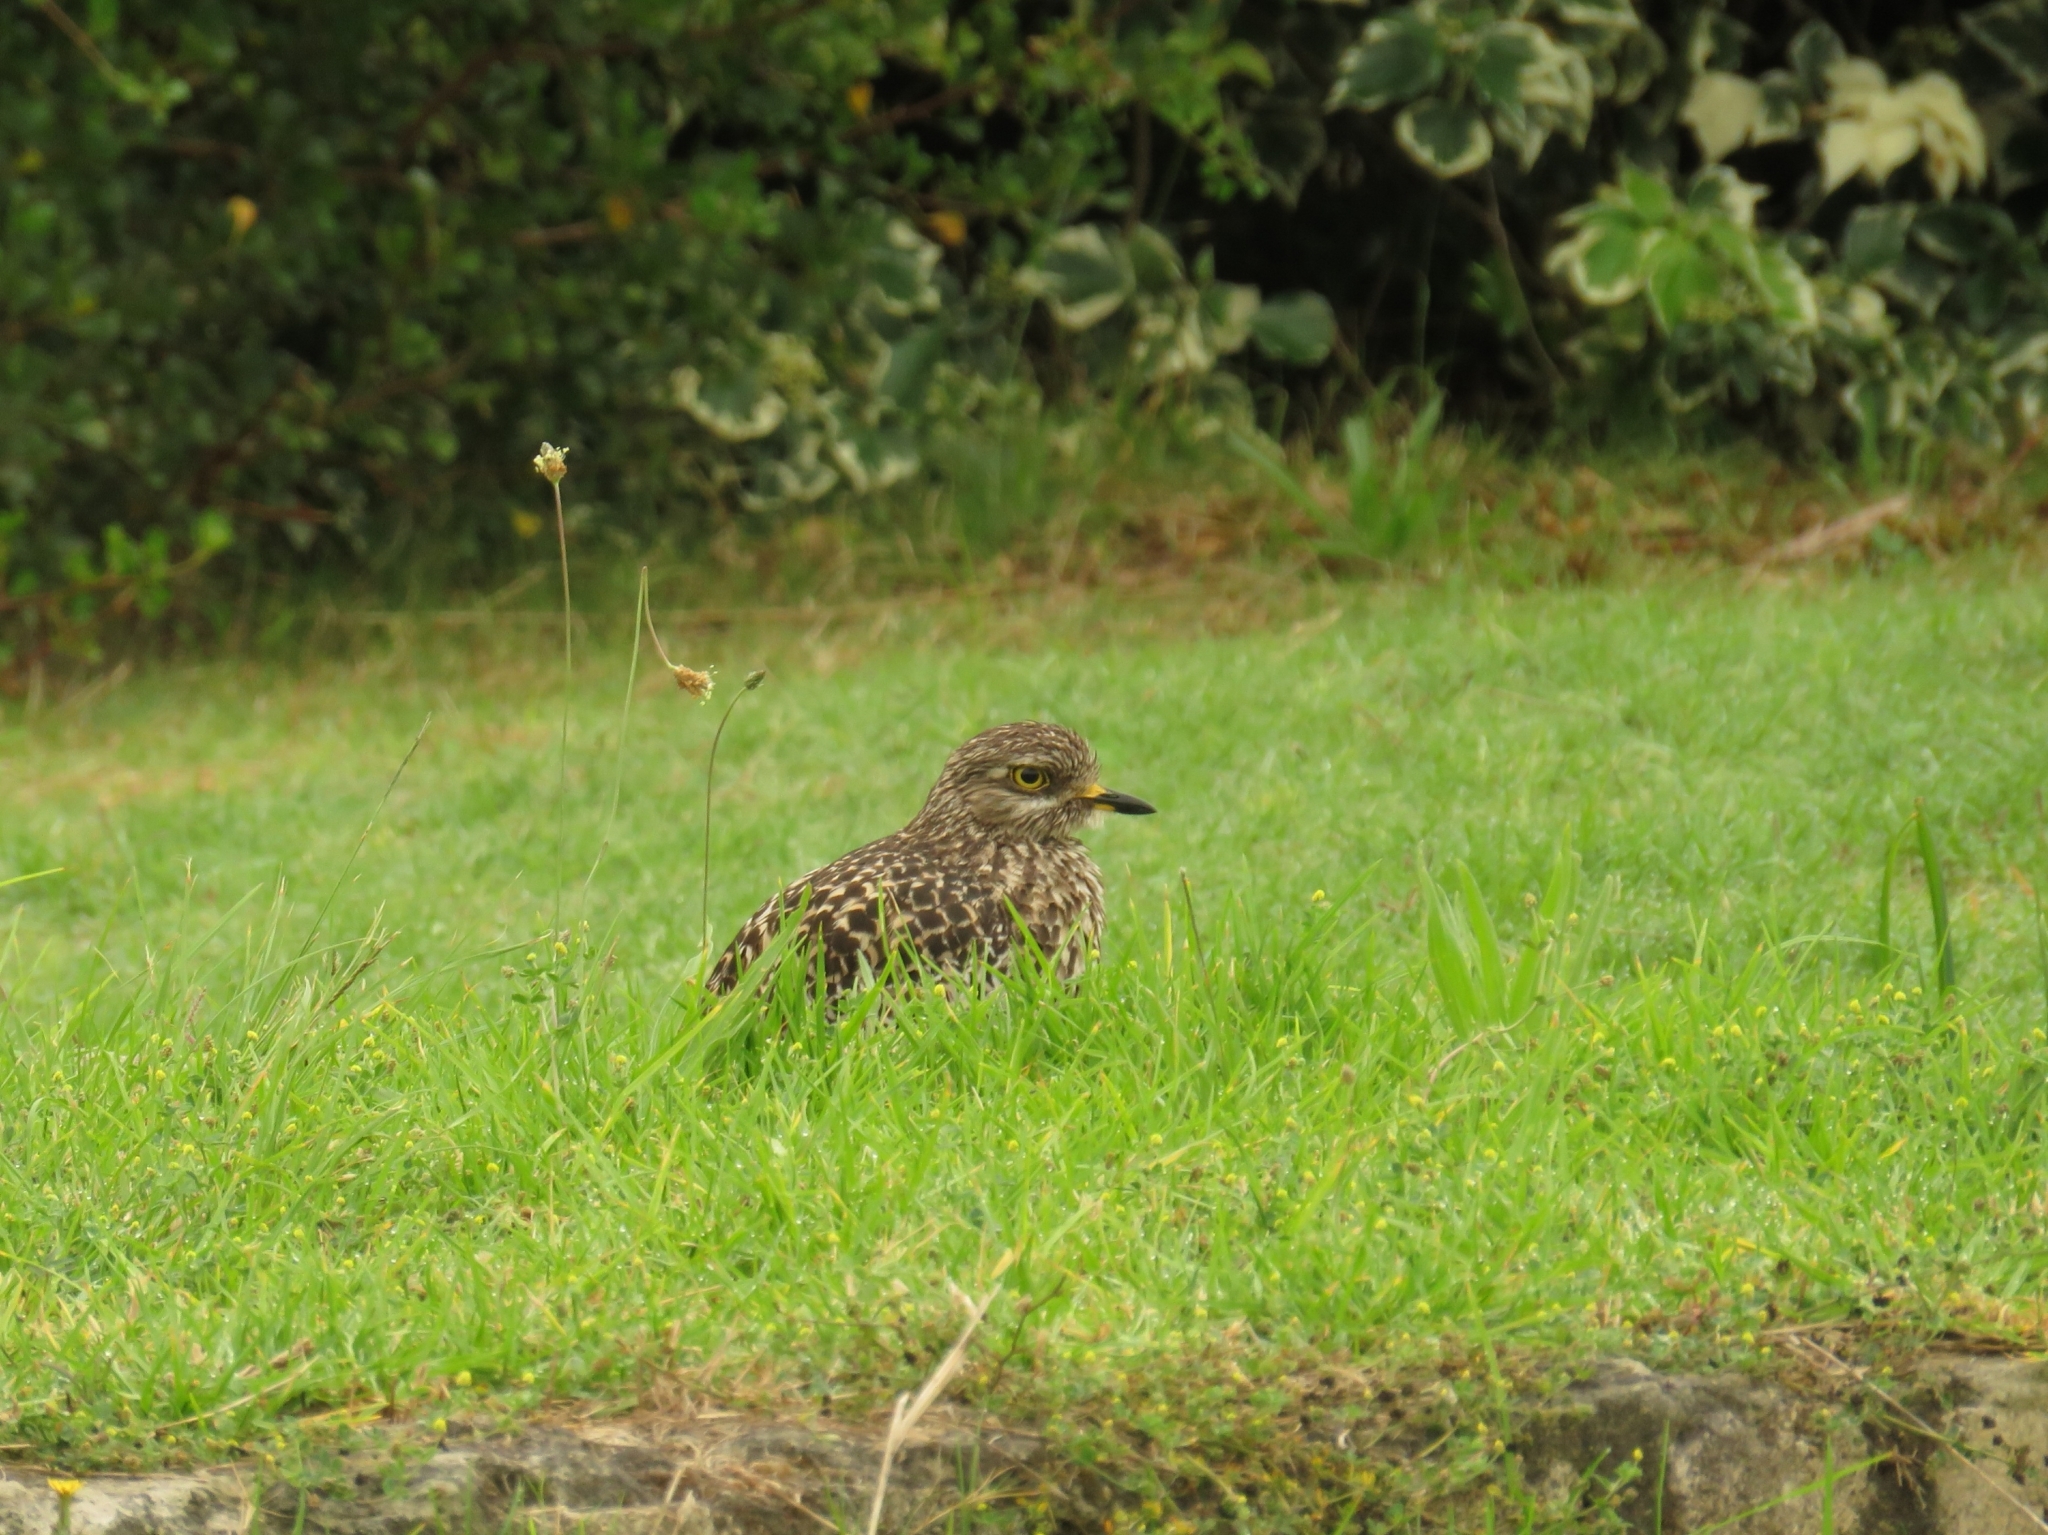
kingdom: Animalia
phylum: Chordata
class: Aves
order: Charadriiformes
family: Burhinidae
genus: Burhinus
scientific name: Burhinus capensis
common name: Spotted thick-knee
